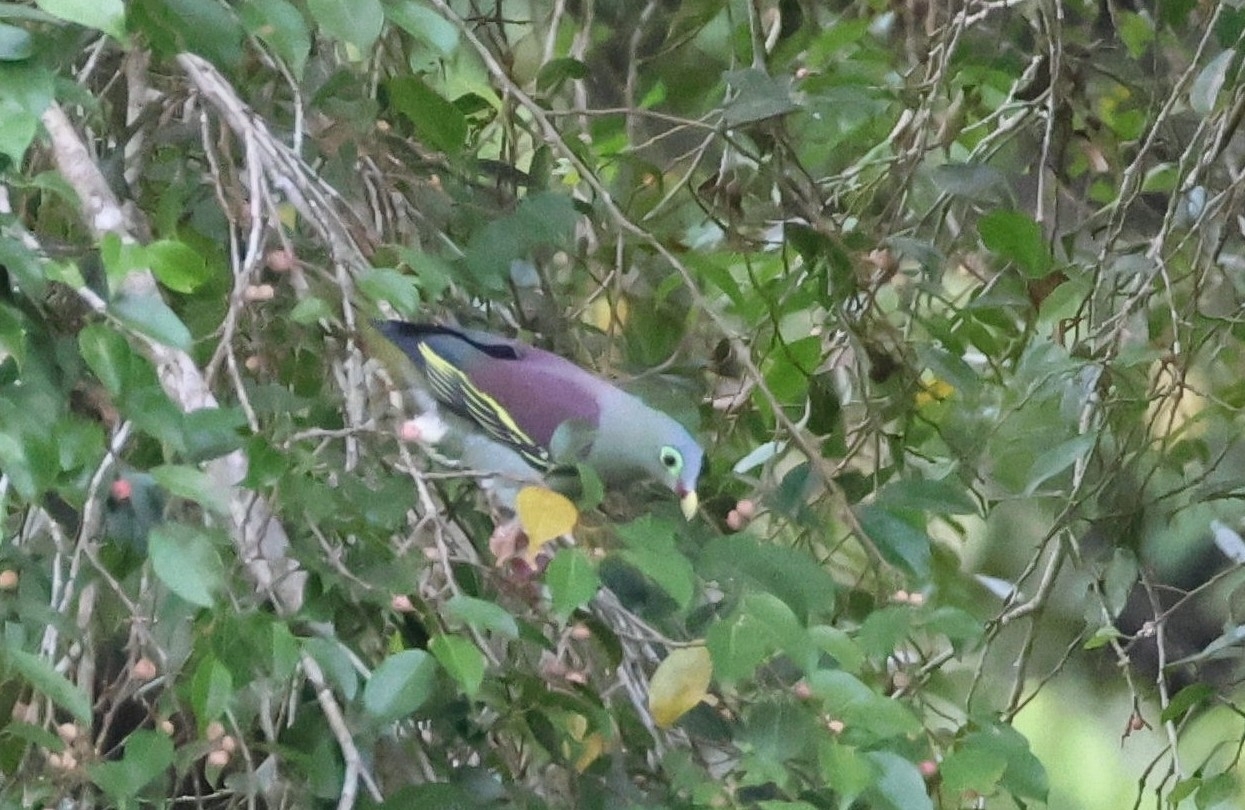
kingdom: Animalia
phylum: Chordata
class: Aves
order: Columbiformes
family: Columbidae
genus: Treron
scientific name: Treron curvirostra
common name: Thick-billed green pigeon
